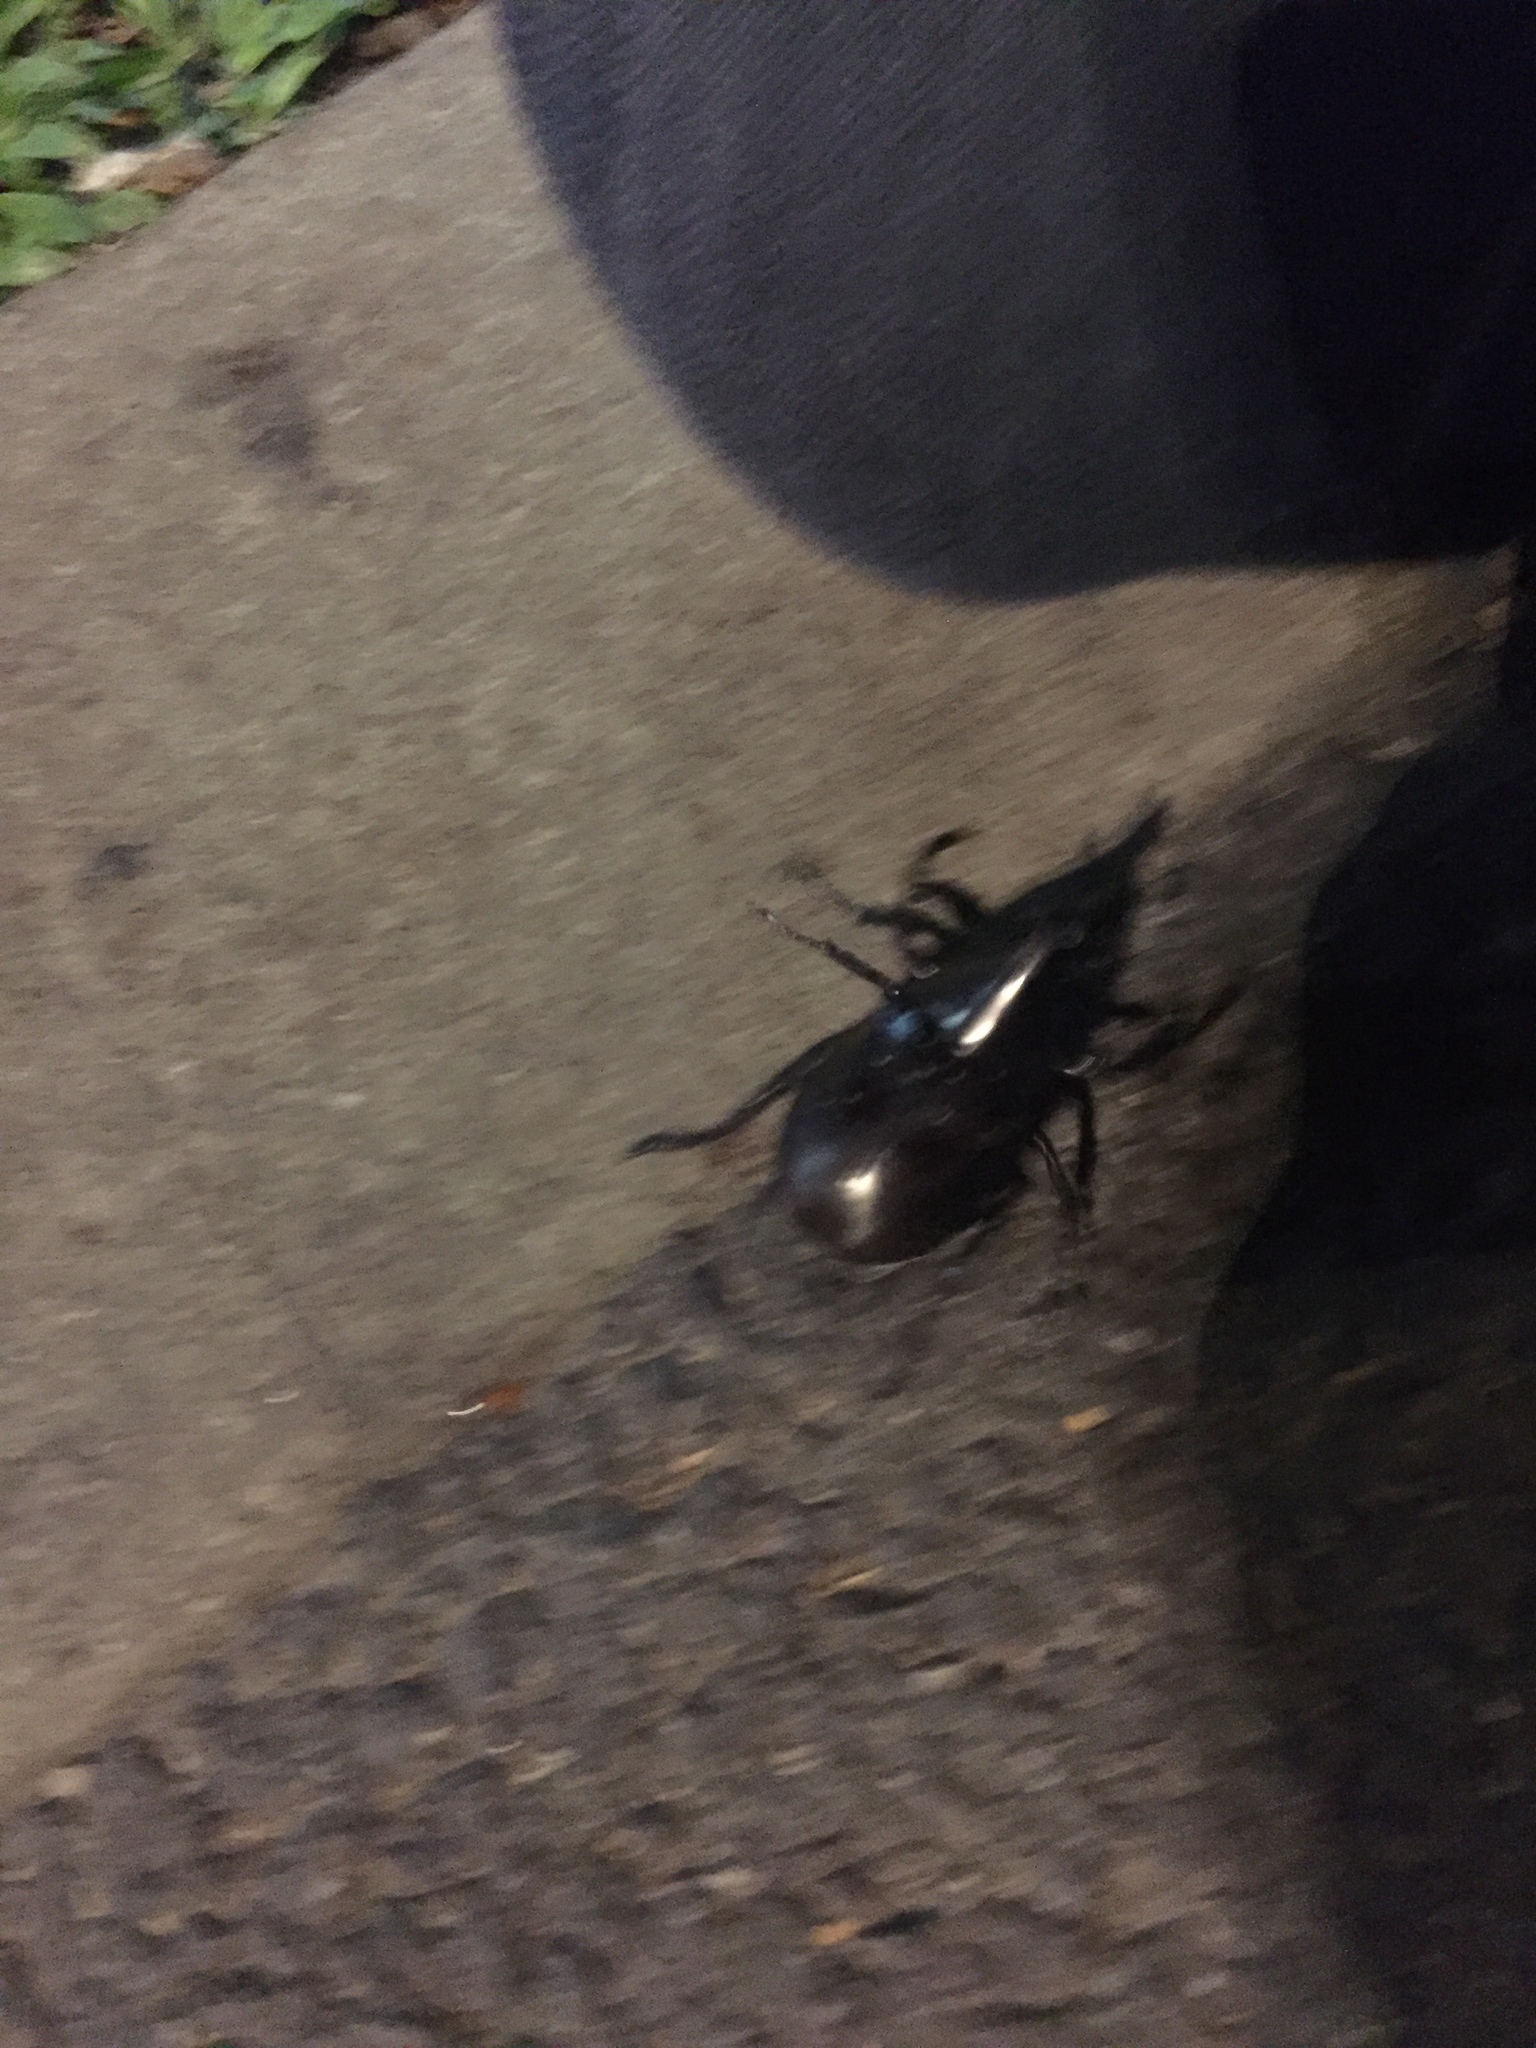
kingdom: Animalia
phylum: Arthropoda
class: Insecta
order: Coleoptera
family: Scarabaeidae
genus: Xylotrupes
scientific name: Xylotrupes australicus
